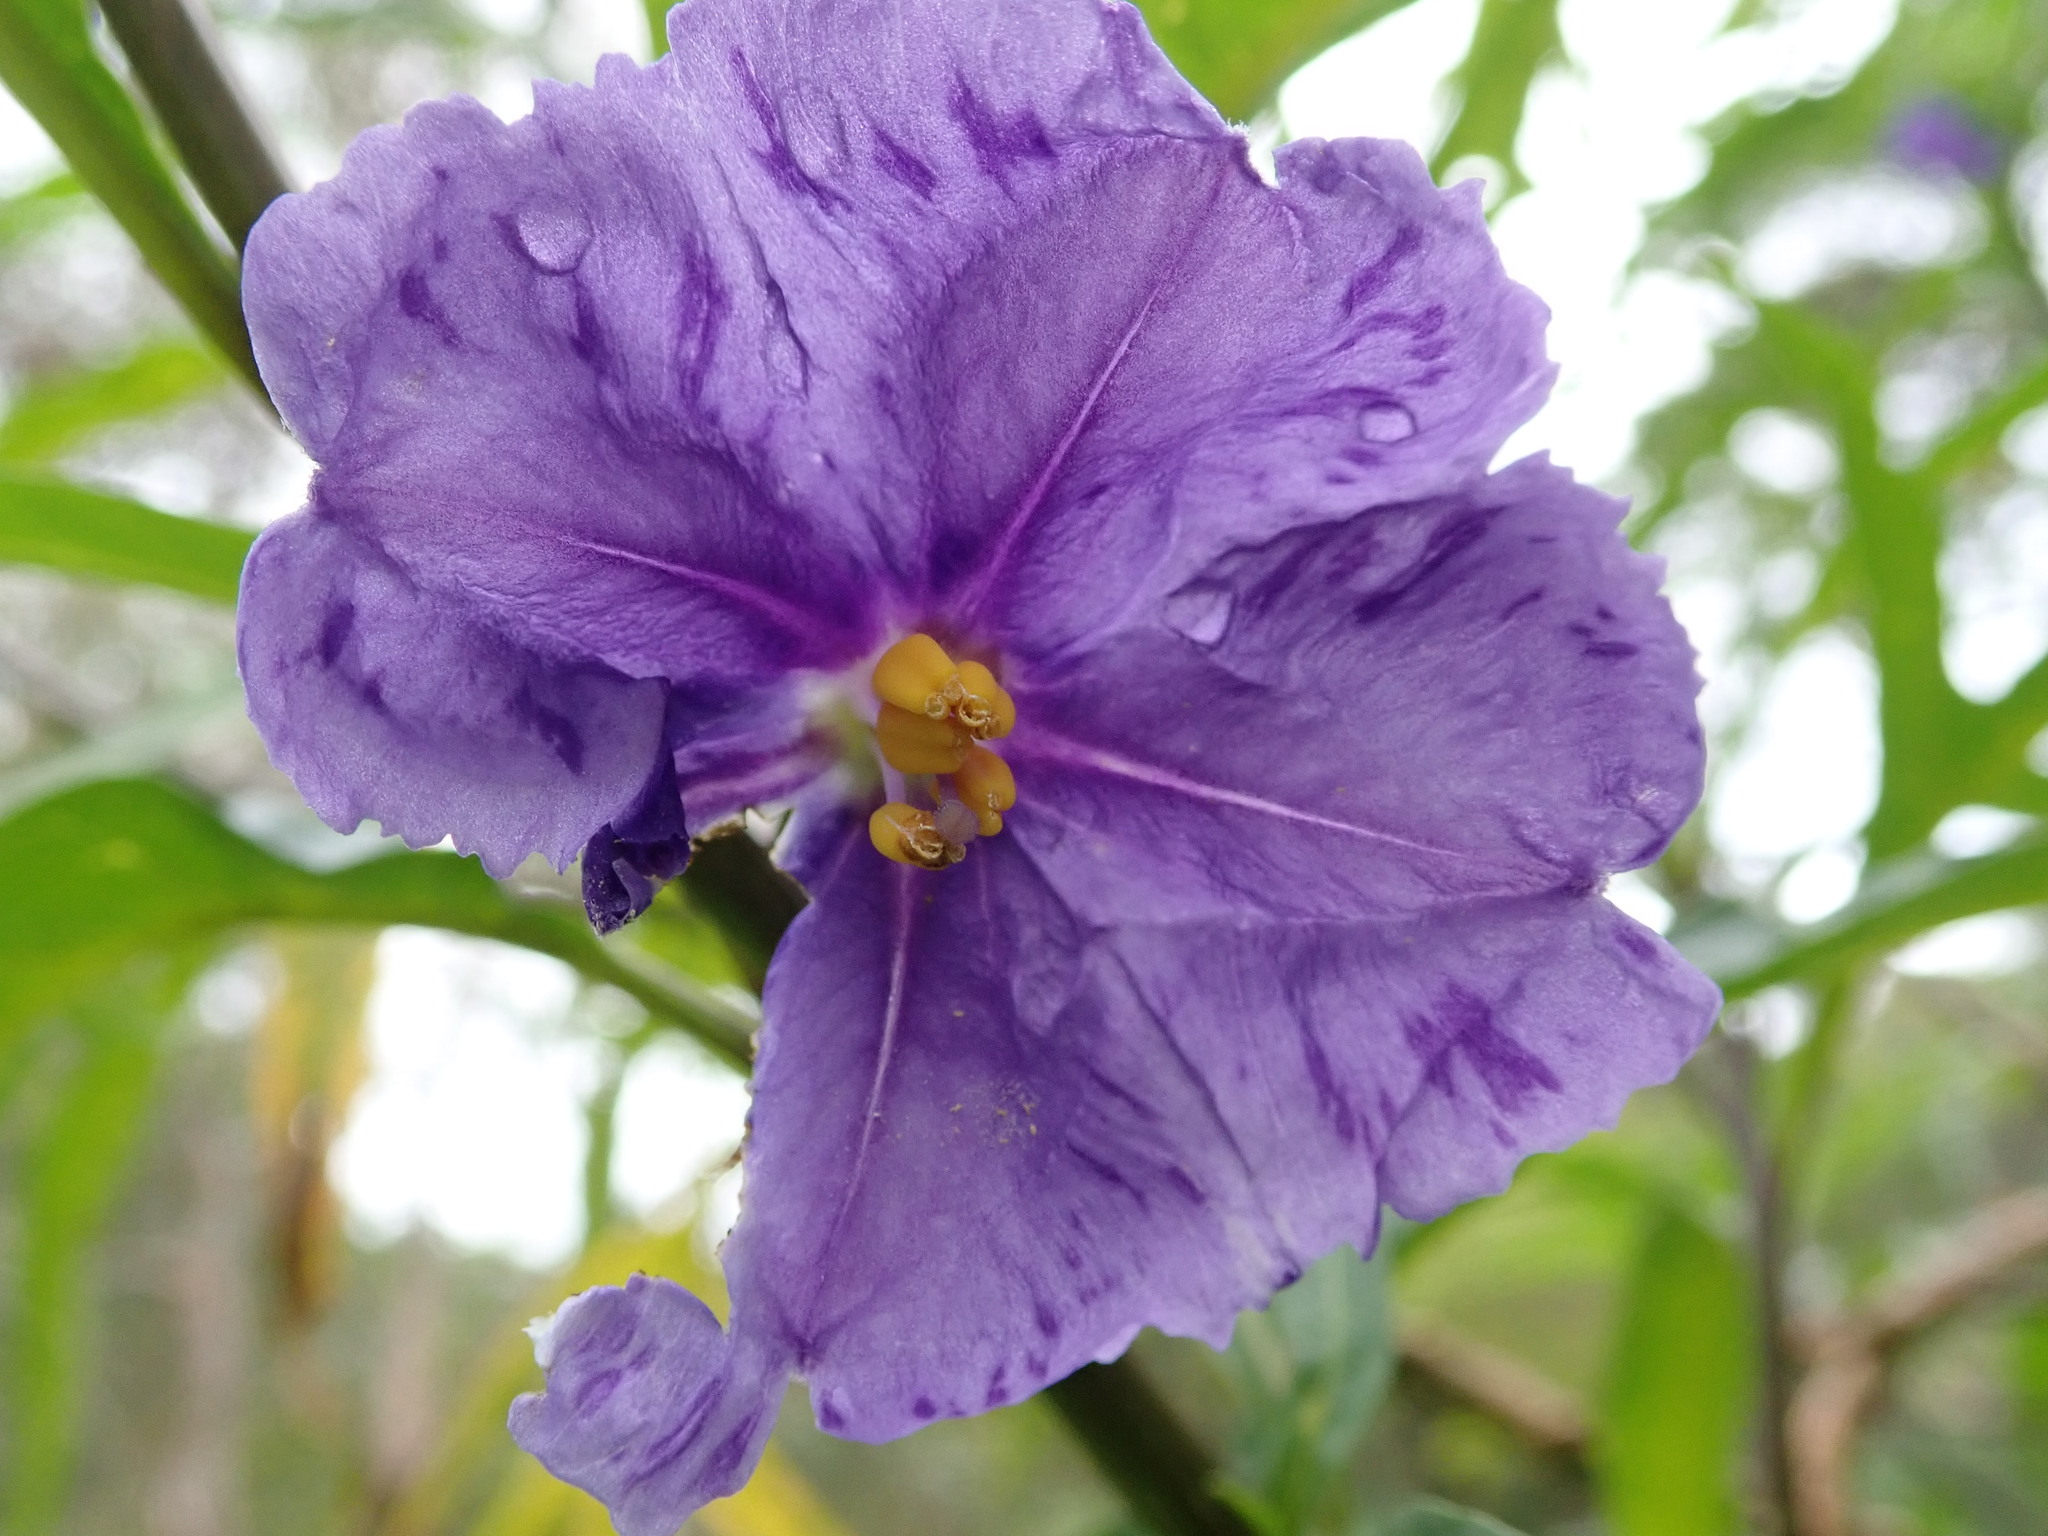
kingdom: Plantae
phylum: Tracheophyta
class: Magnoliopsida
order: Solanales
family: Solanaceae
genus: Solanum
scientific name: Solanum laciniatum
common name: Kangaroo-apple
